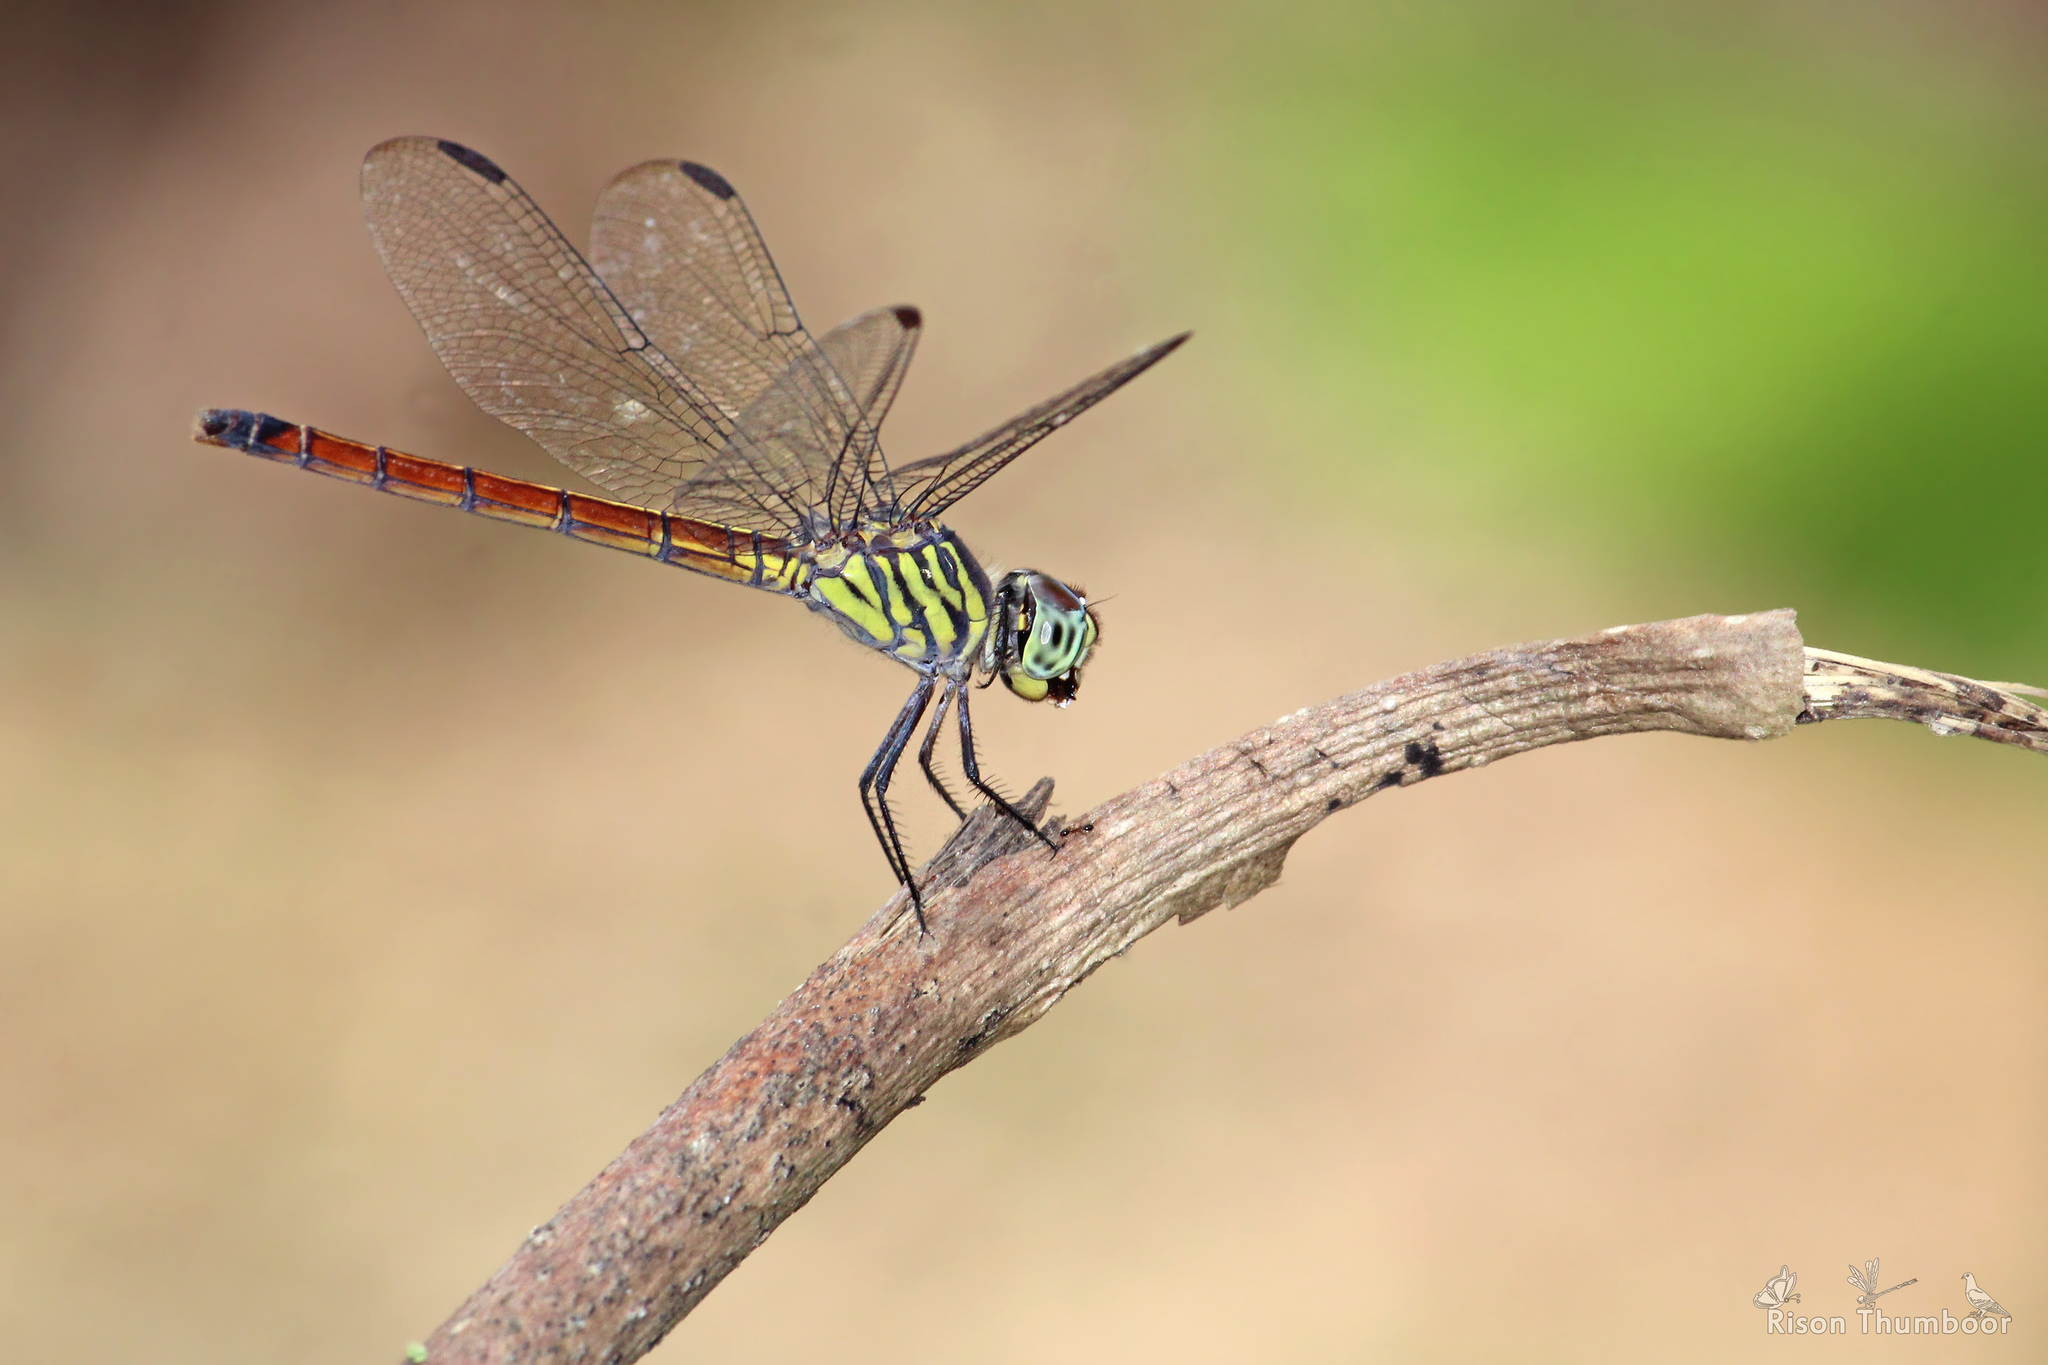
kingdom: Animalia
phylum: Arthropoda
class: Insecta
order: Odonata
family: Libellulidae
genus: Lathrecista
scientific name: Lathrecista asiatica
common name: Scarlet grenadier
